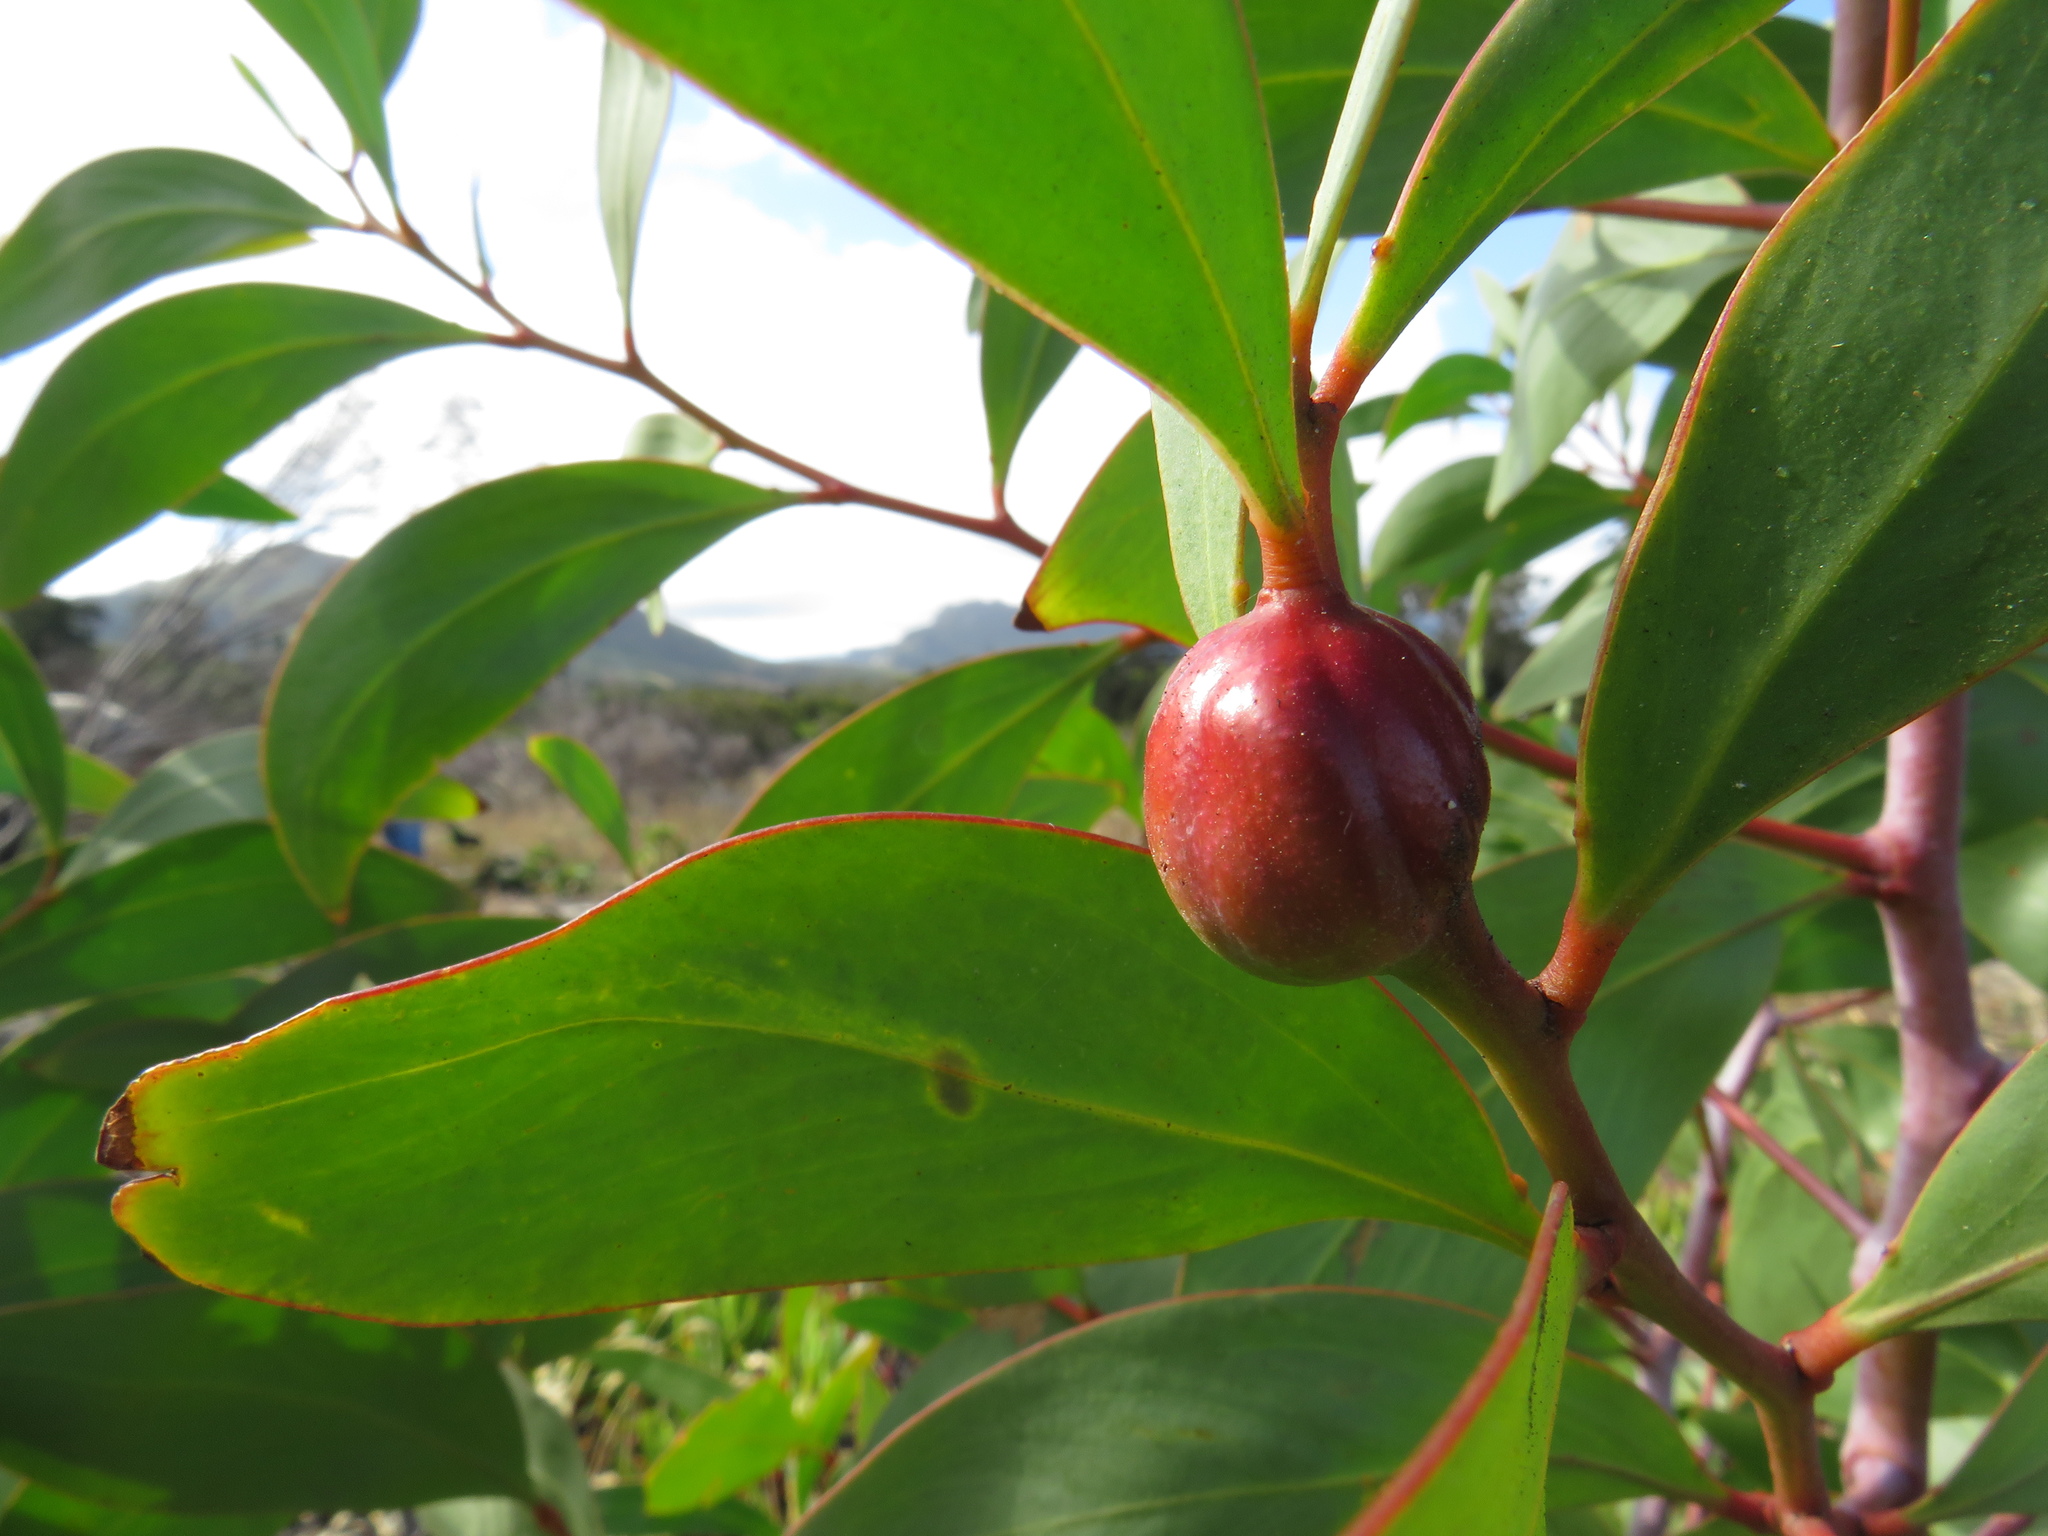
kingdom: Animalia
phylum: Arthropoda
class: Insecta
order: Hymenoptera
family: Pteromalidae
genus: Trichilogaster
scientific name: Trichilogaster signiventris
